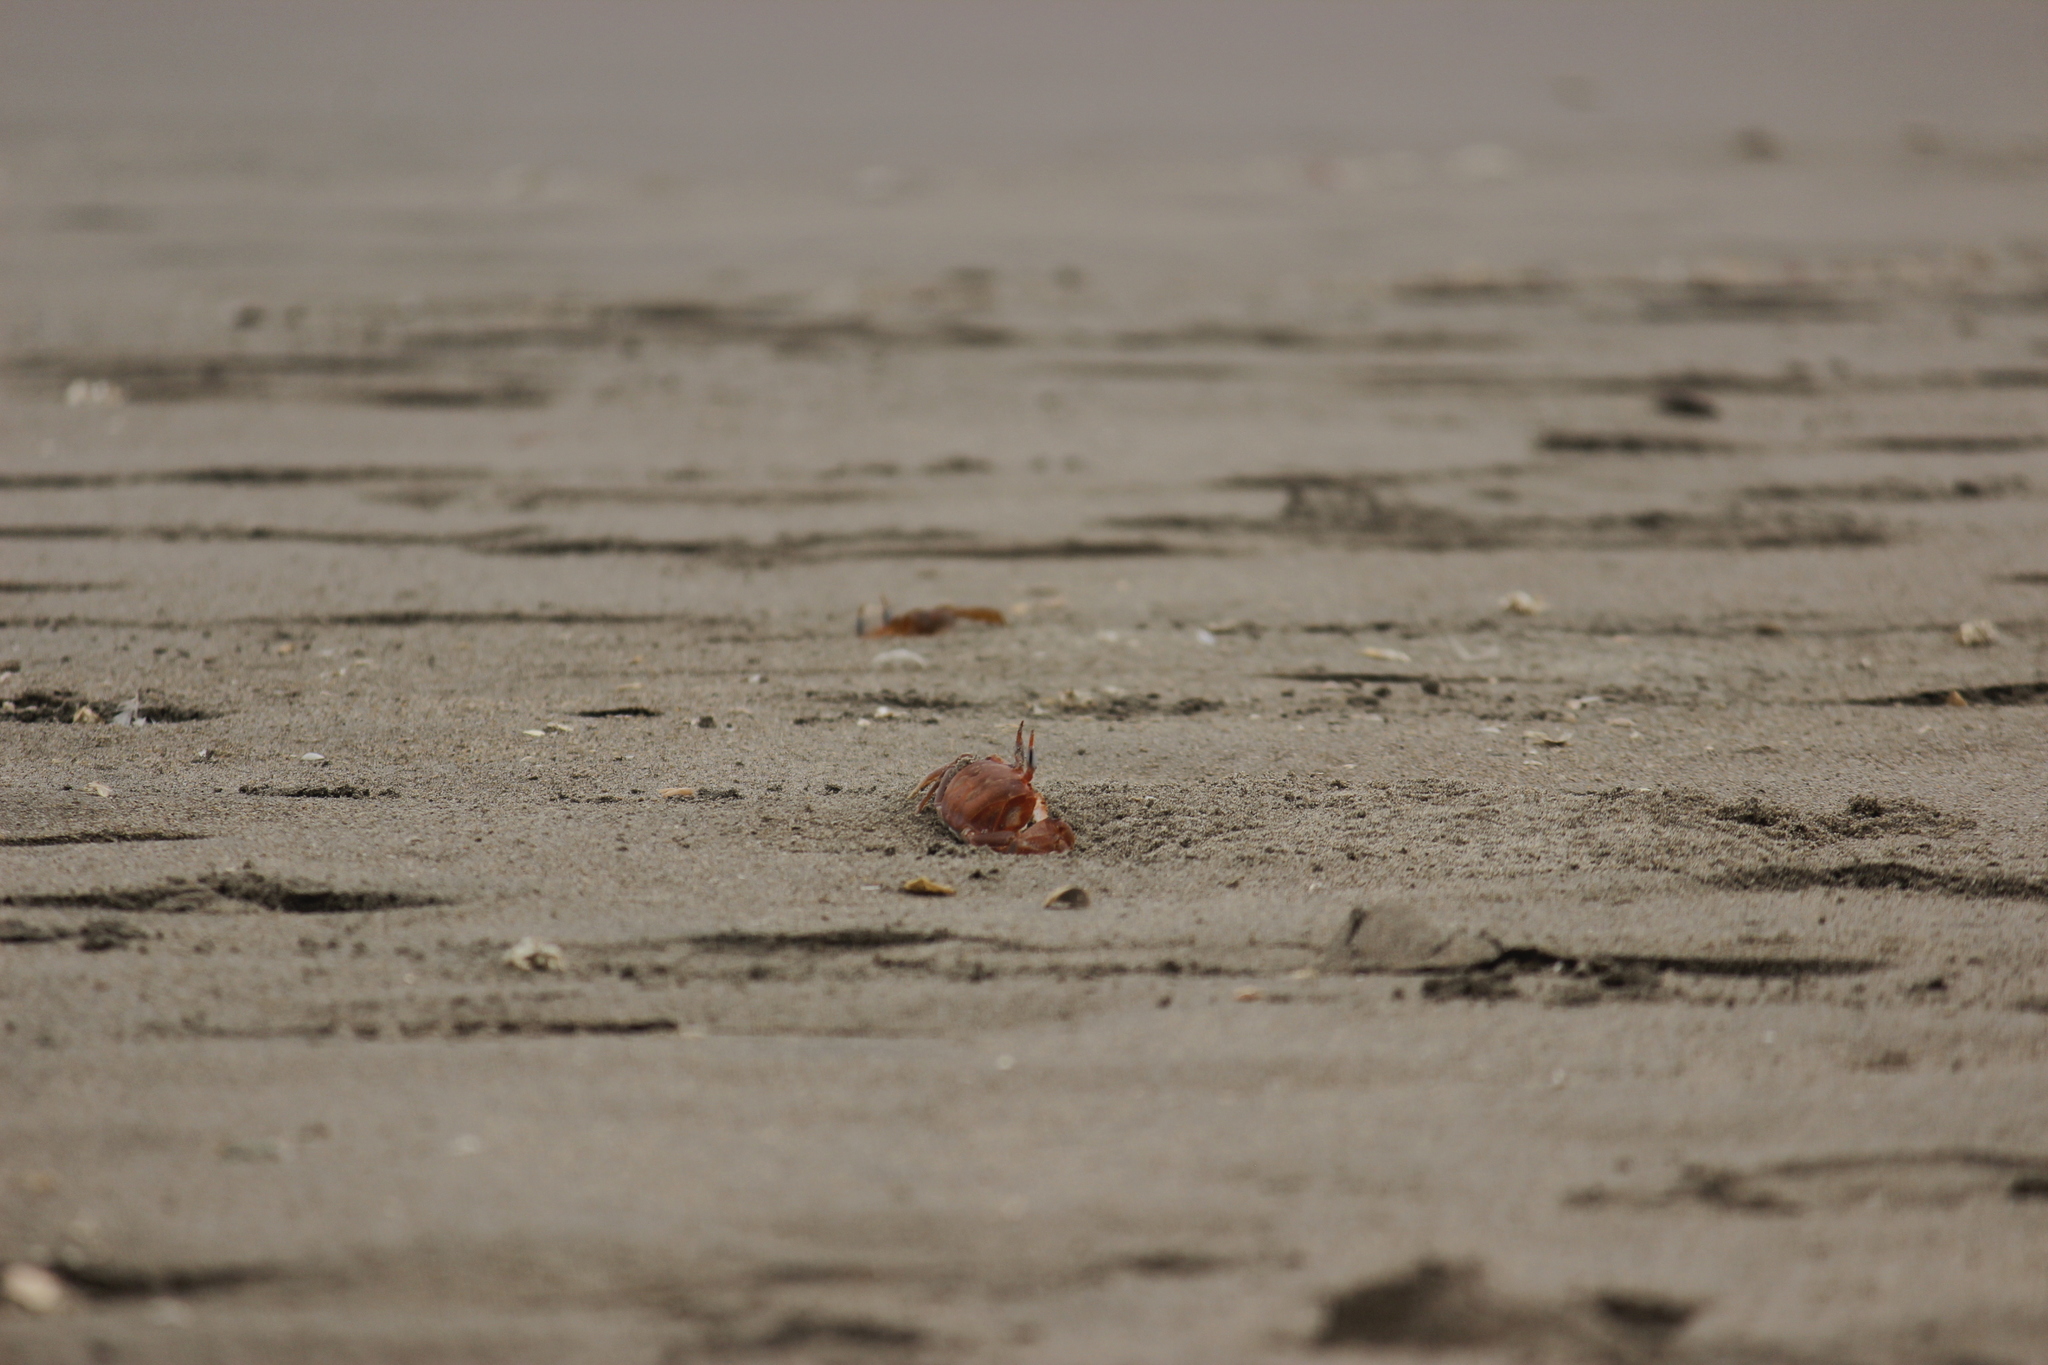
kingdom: Animalia
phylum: Arthropoda
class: Malacostraca
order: Decapoda
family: Ocypodidae
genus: Ocypode
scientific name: Ocypode gaudichaudii
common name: Pacific ghost crab
